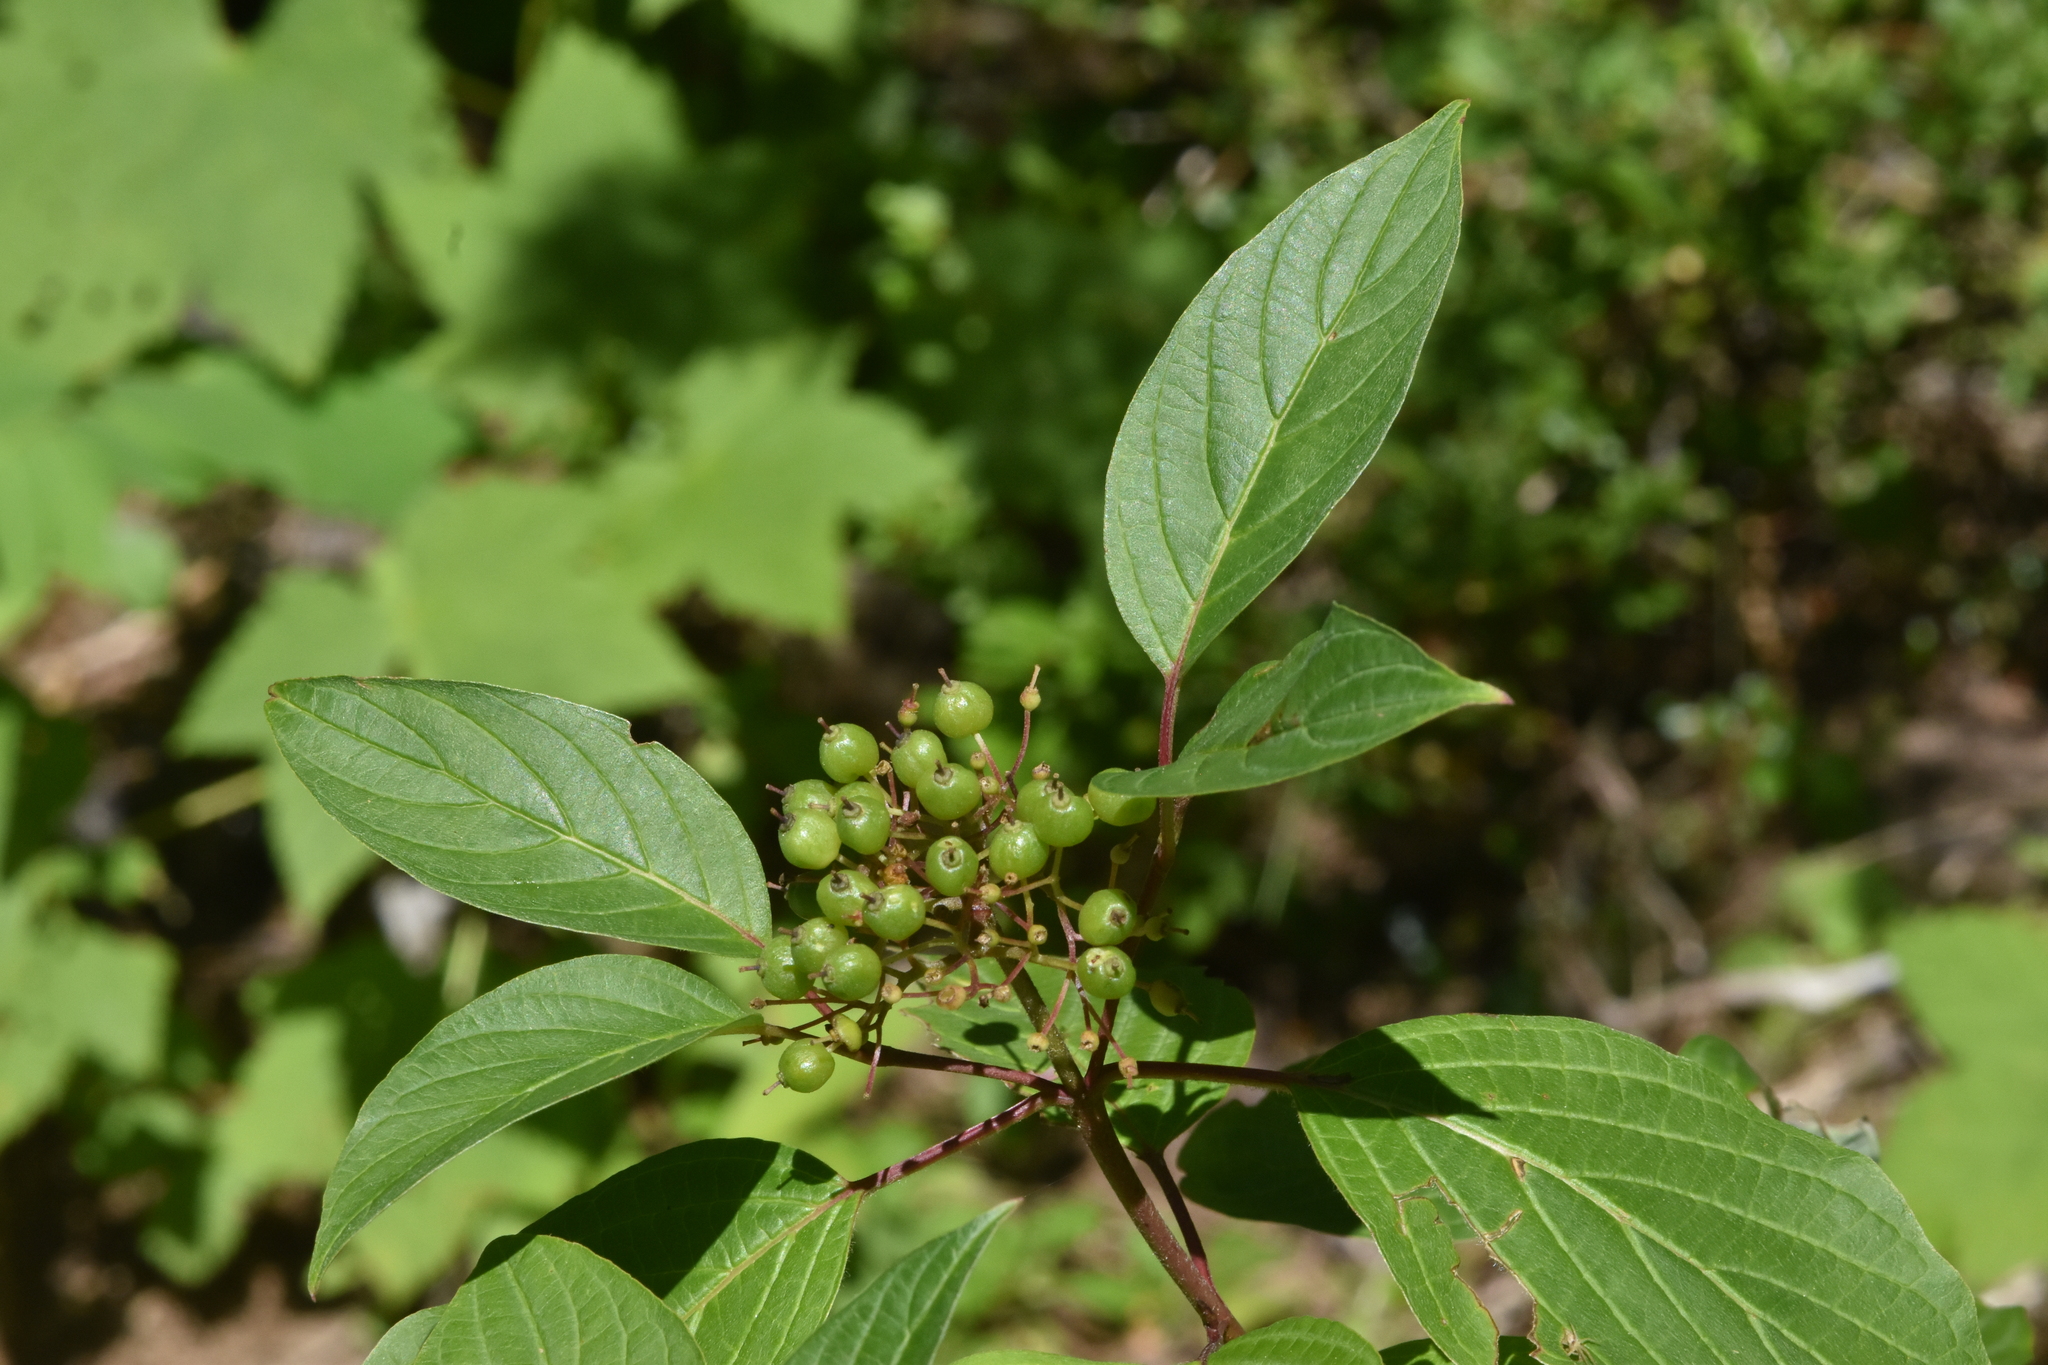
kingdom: Plantae
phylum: Tracheophyta
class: Magnoliopsida
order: Cornales
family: Cornaceae
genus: Cornus
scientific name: Cornus sericea
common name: Red-osier dogwood
